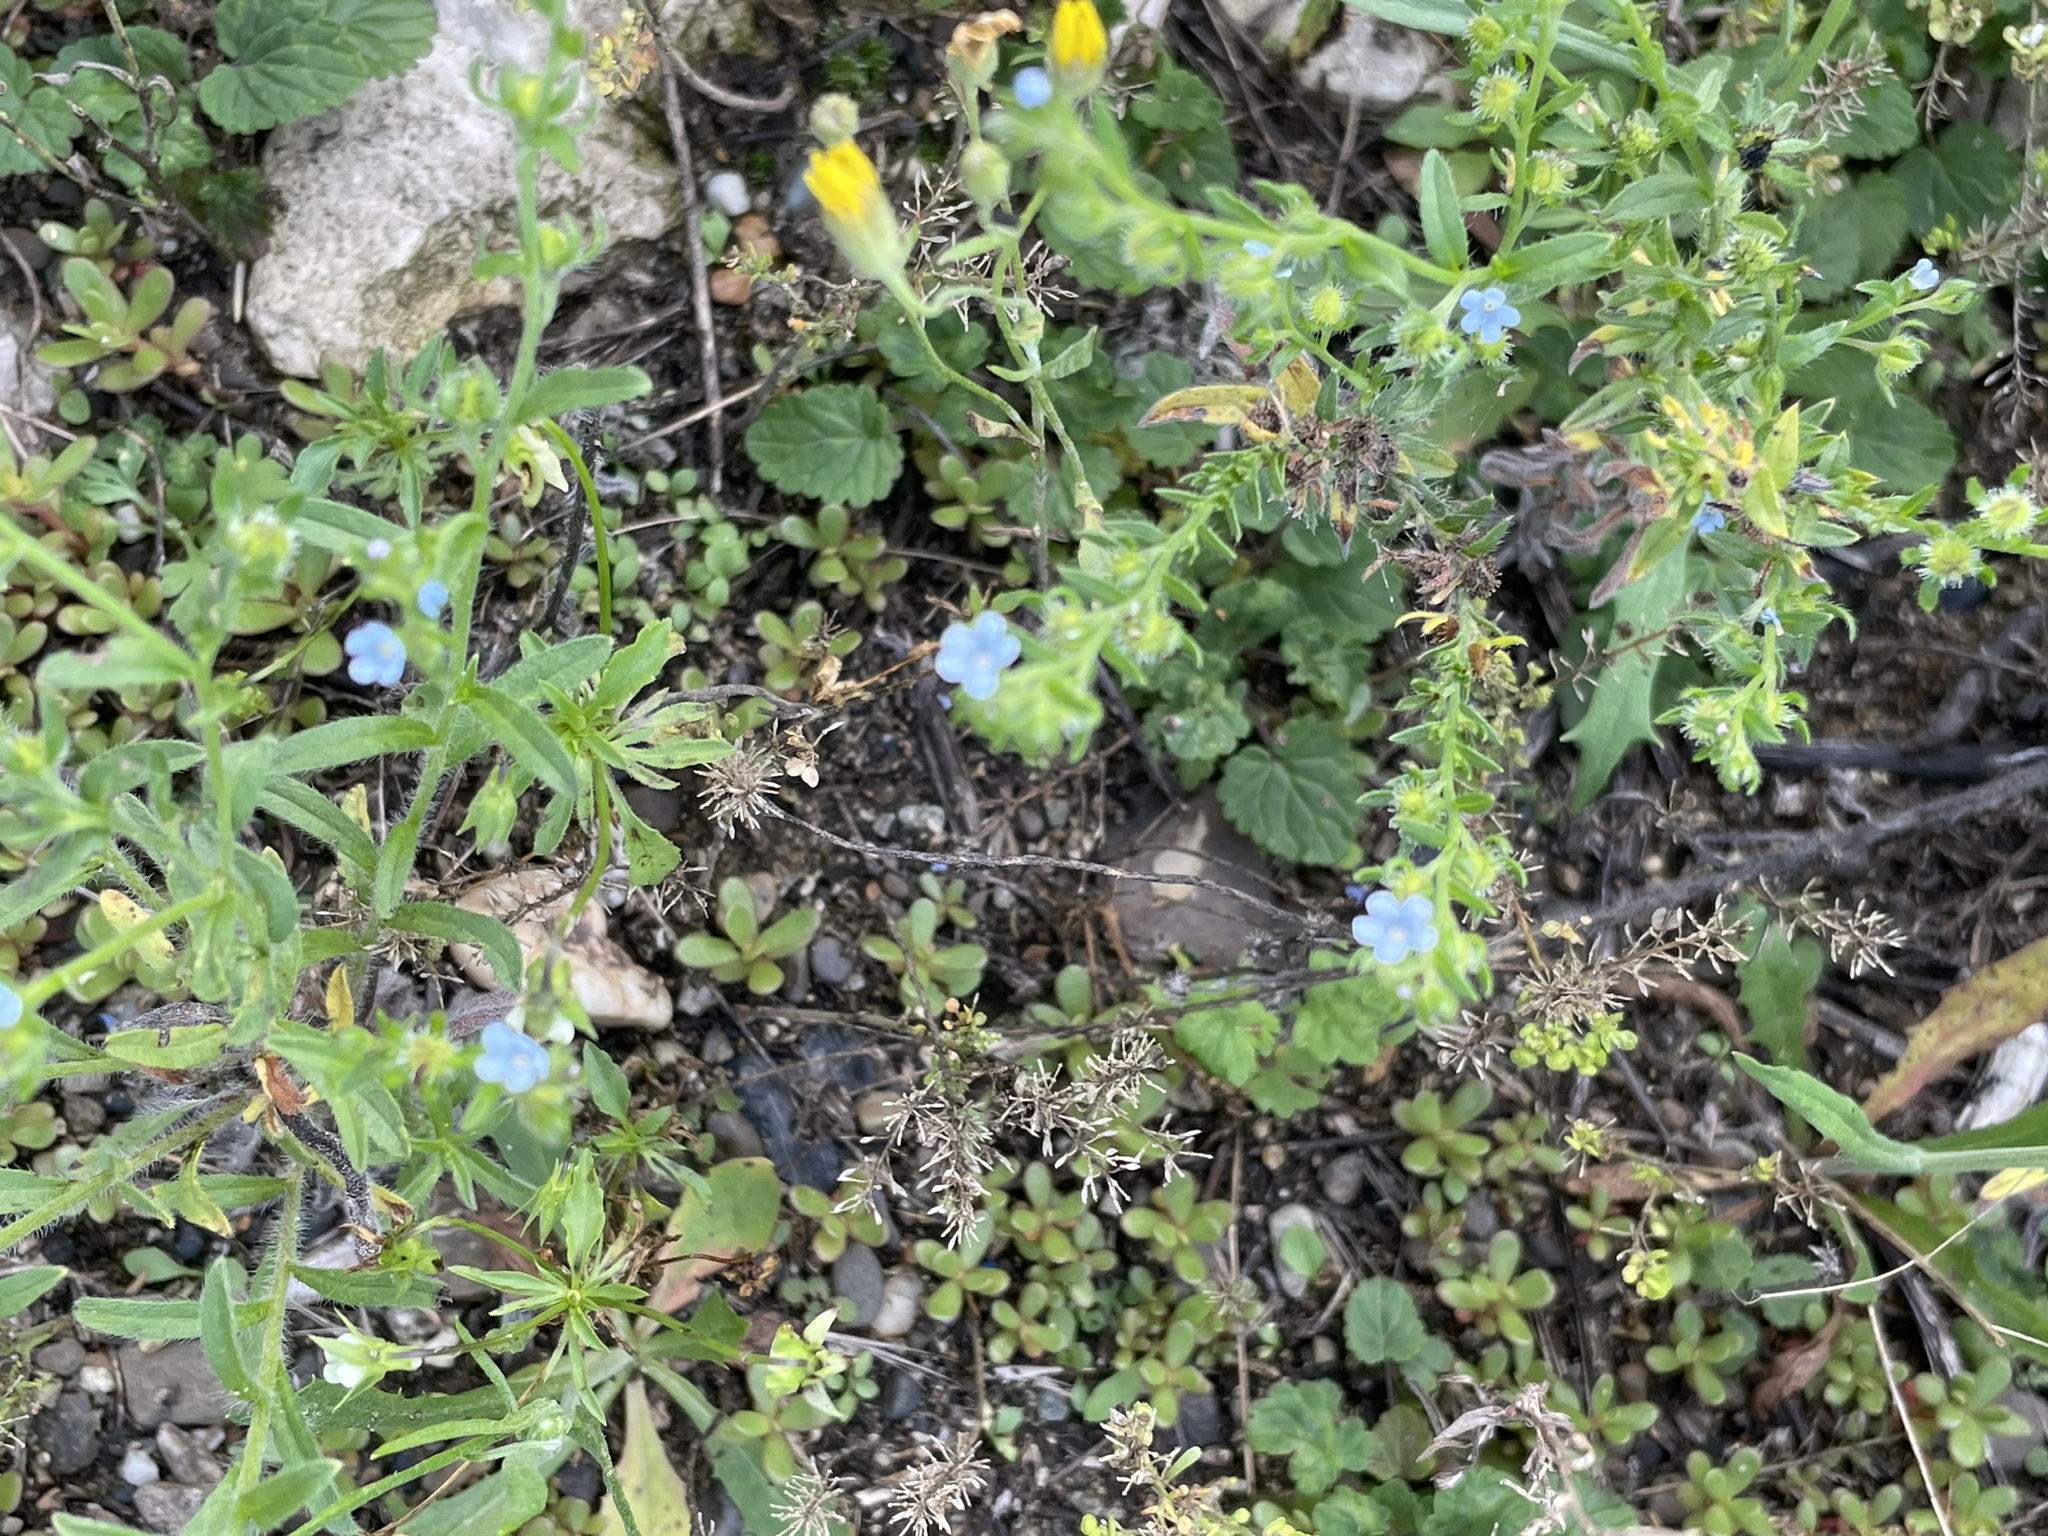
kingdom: Plantae
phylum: Tracheophyta
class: Magnoliopsida
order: Boraginales
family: Boraginaceae
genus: Lappula
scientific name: Lappula squarrosa
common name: European stickseed
